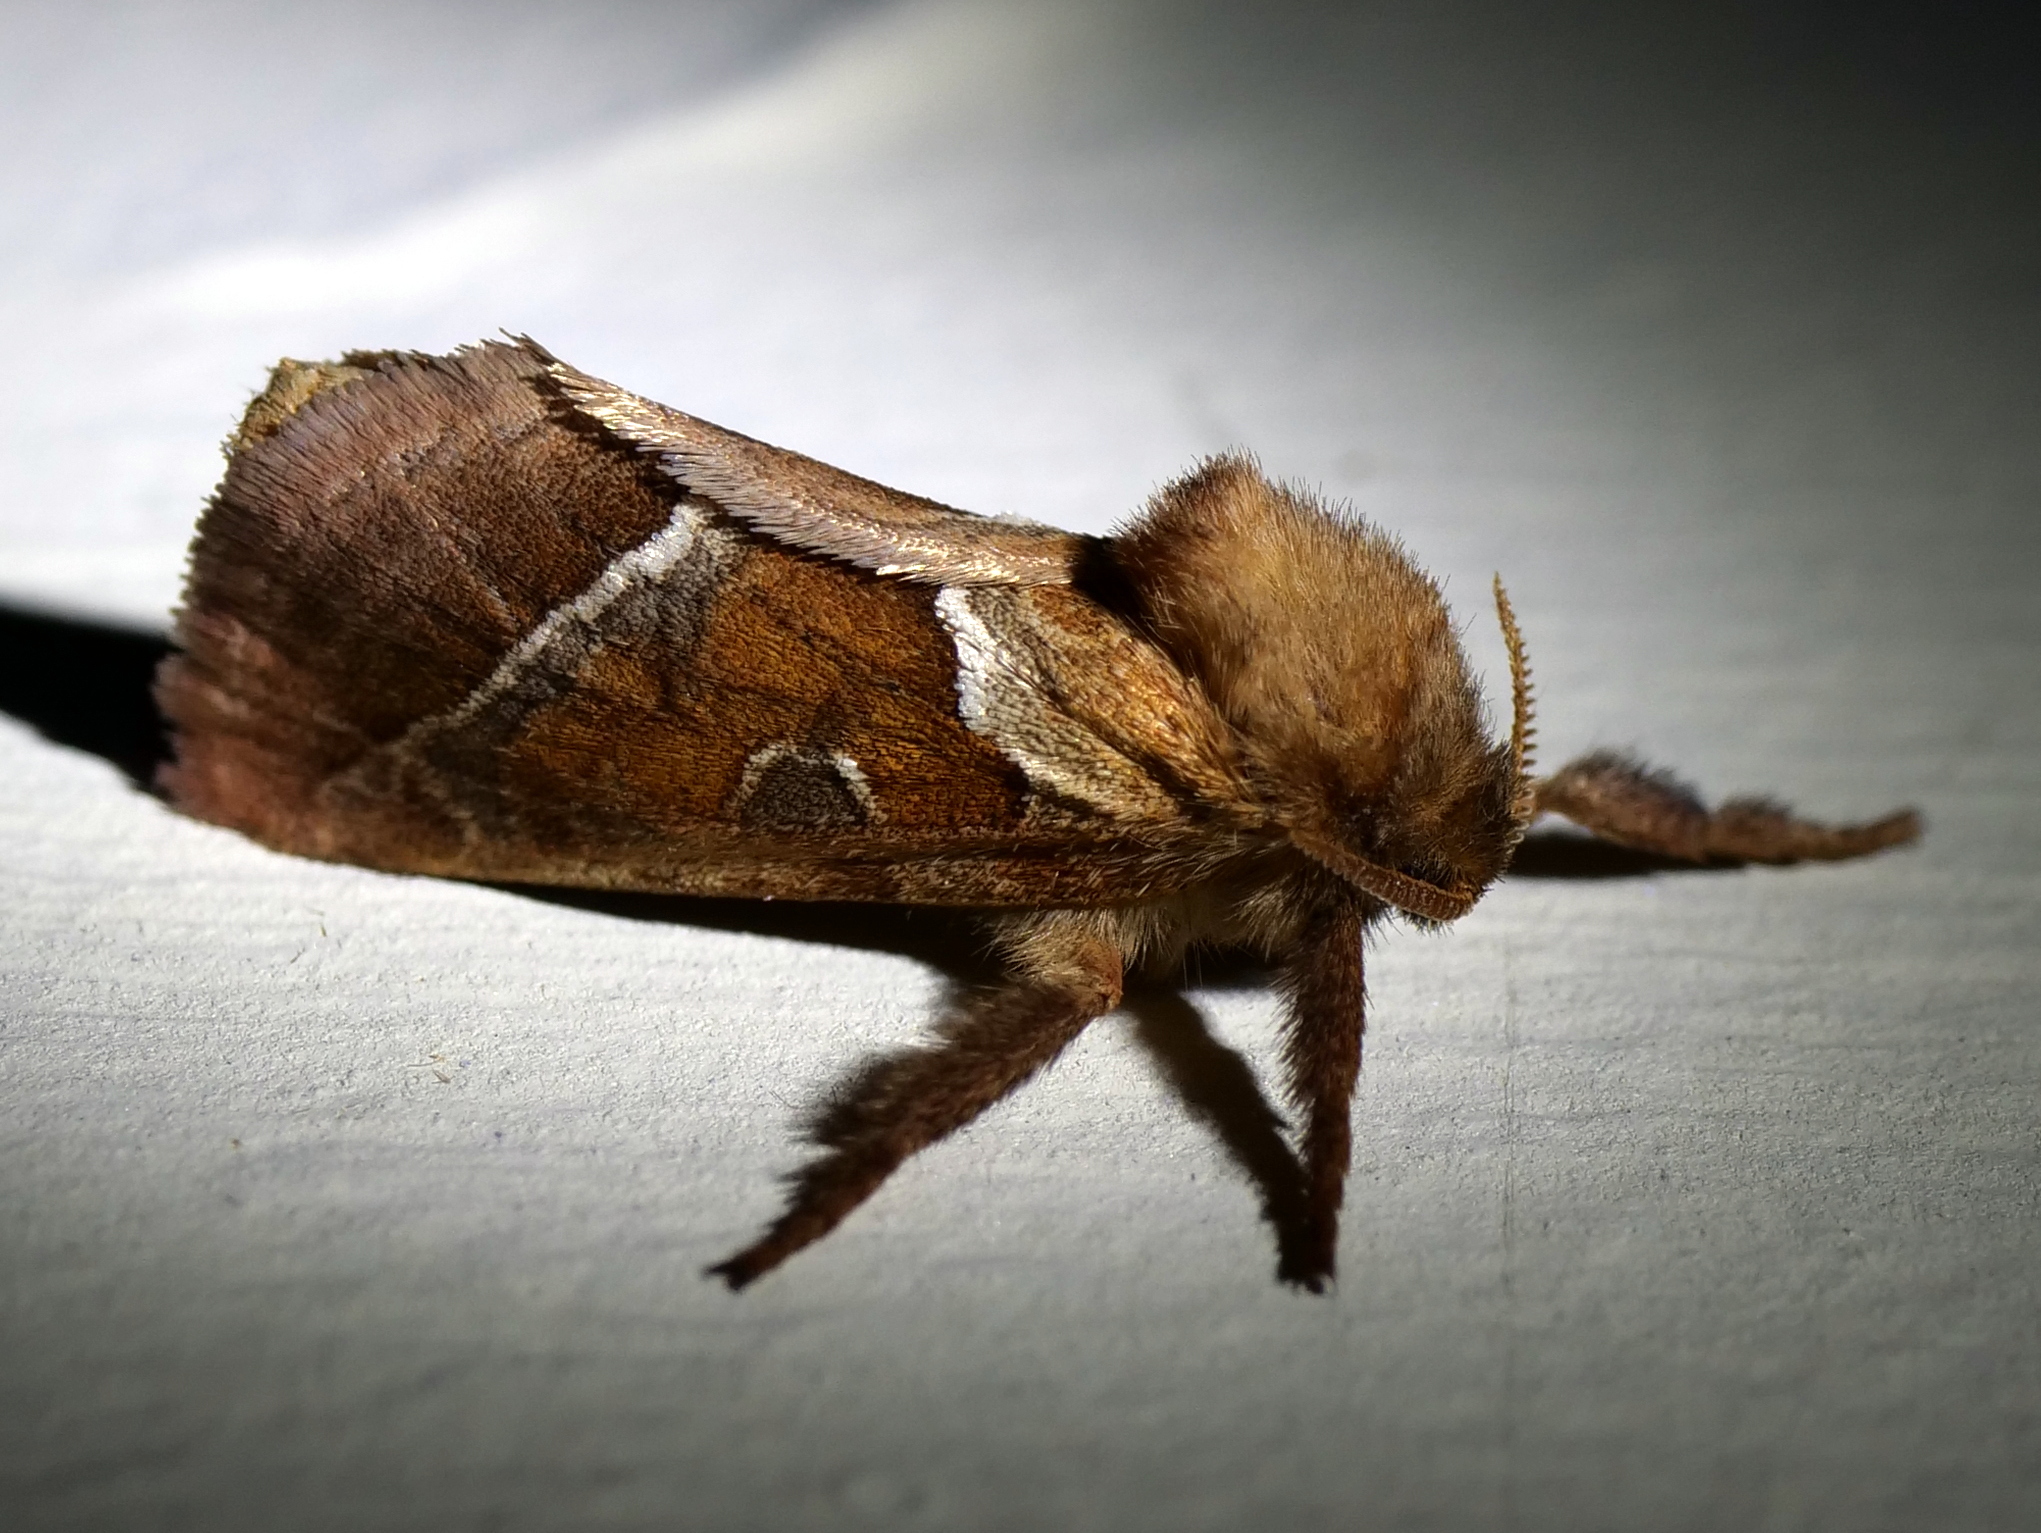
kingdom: Animalia
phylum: Arthropoda
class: Insecta
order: Lepidoptera
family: Hepialidae
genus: Triodia
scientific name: Triodia sylvina
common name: Orange swift
